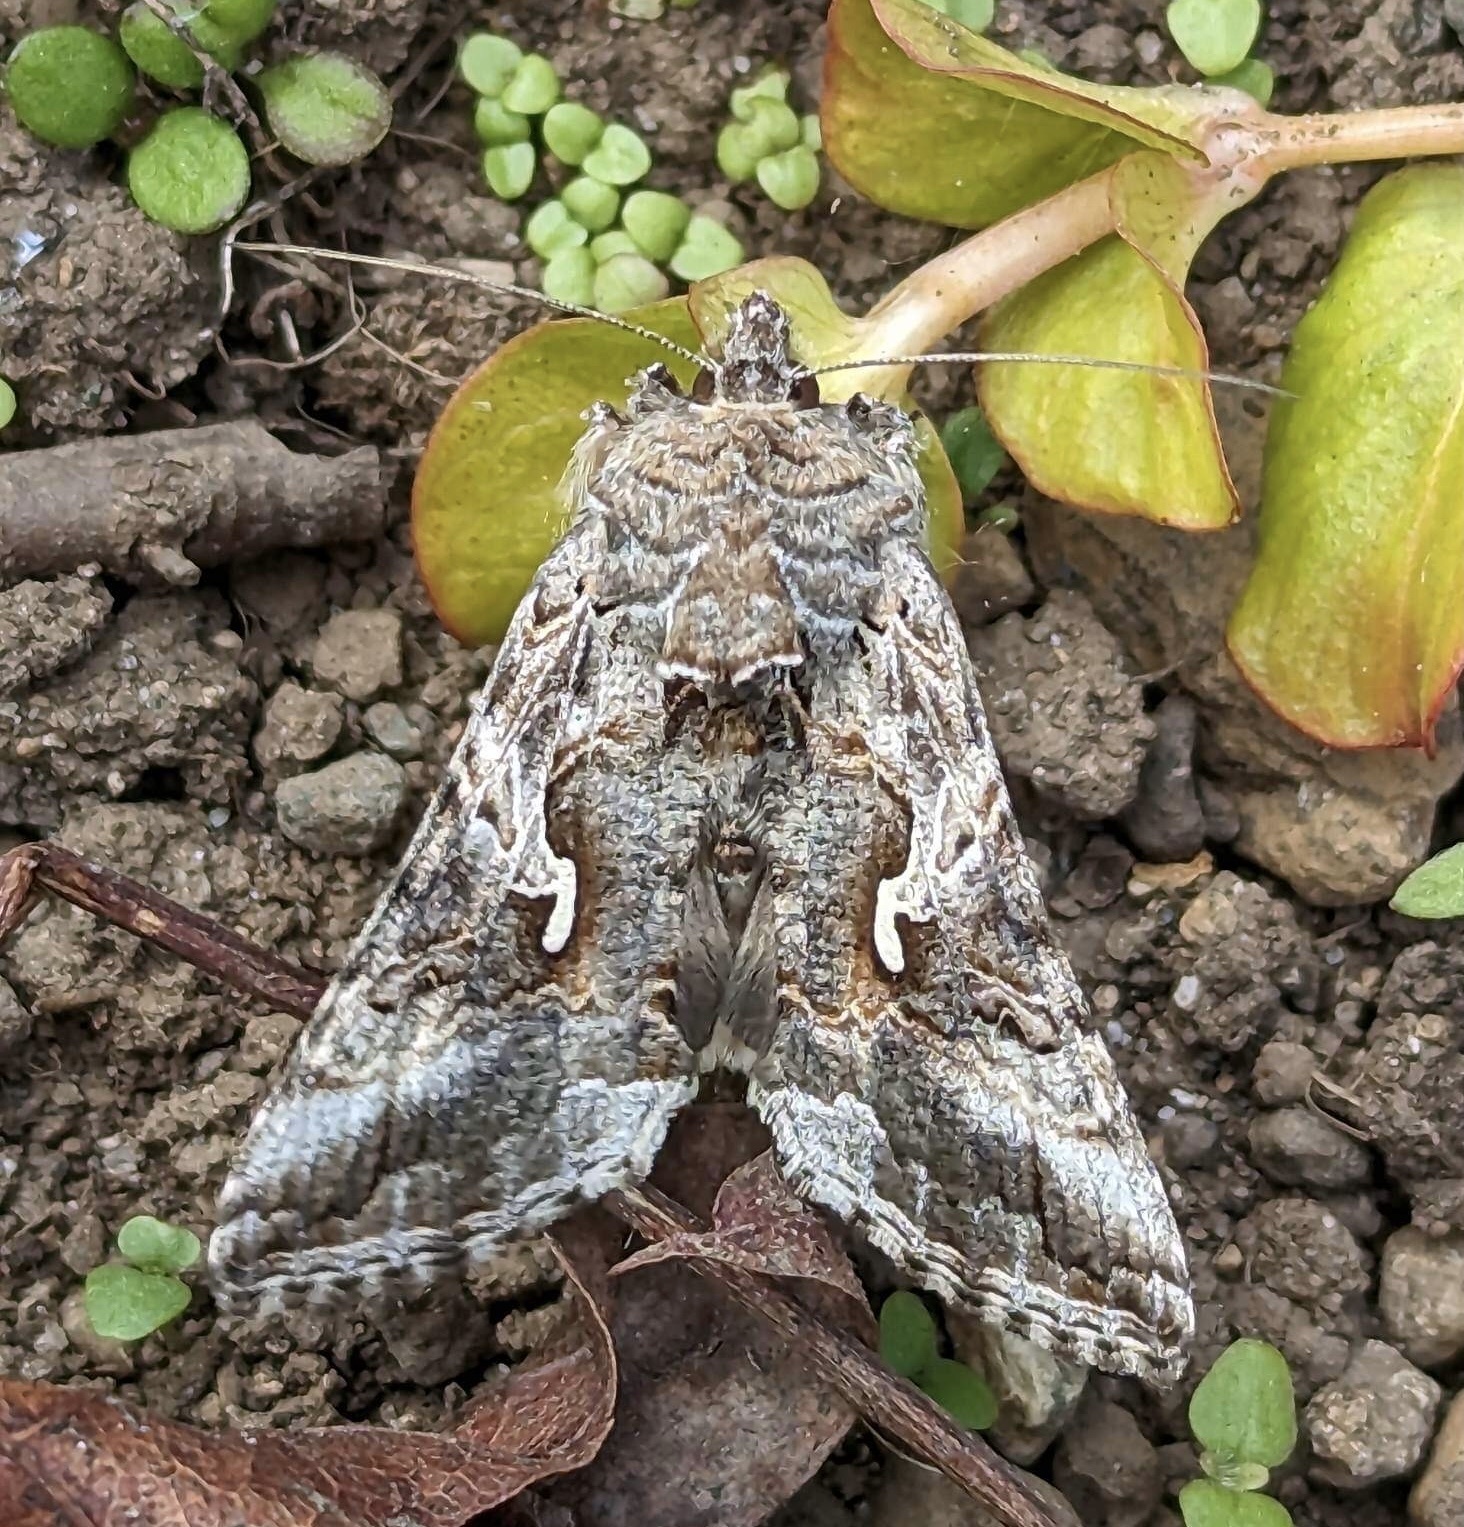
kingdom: Animalia
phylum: Arthropoda
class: Insecta
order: Lepidoptera
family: Noctuidae
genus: Autographa
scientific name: Autographa californica
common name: Alfalfa looper
